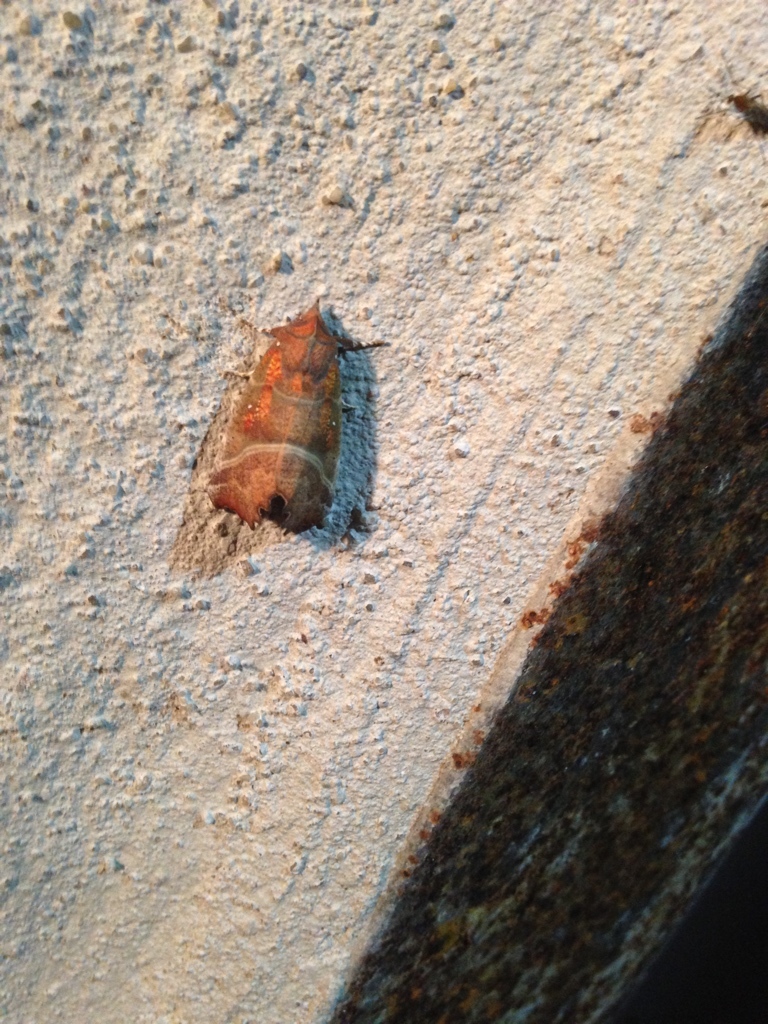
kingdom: Animalia
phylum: Arthropoda
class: Insecta
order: Lepidoptera
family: Erebidae
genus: Scoliopteryx
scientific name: Scoliopteryx libatrix
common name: Herald
